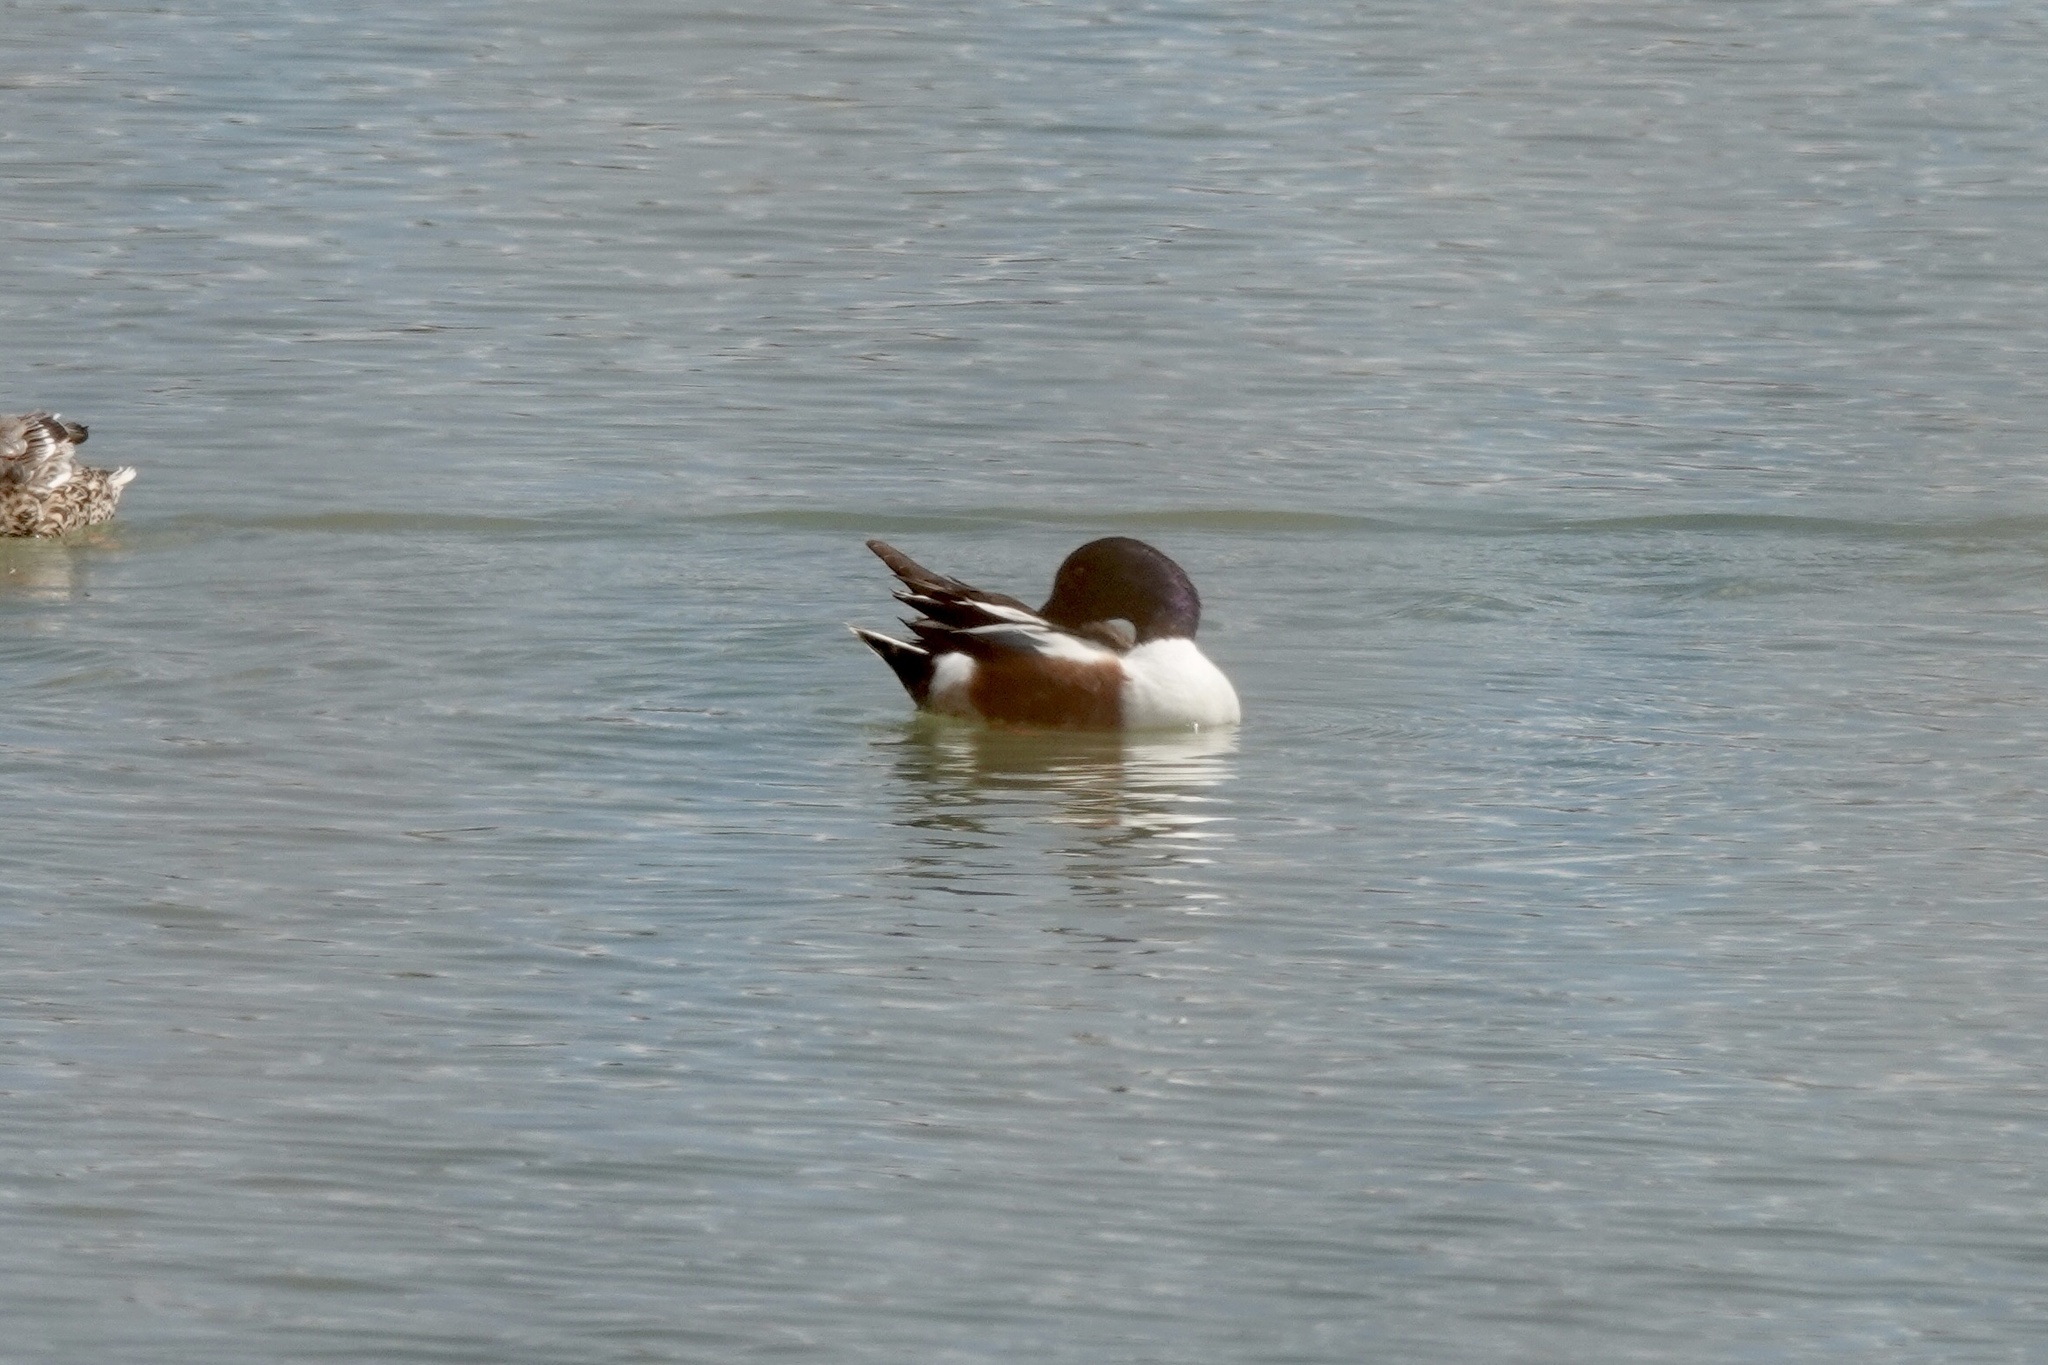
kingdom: Animalia
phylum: Chordata
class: Aves
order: Anseriformes
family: Anatidae
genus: Spatula
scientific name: Spatula clypeata
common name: Northern shoveler
